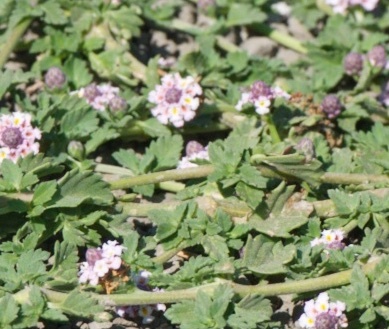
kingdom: Plantae
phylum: Tracheophyta
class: Magnoliopsida
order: Lamiales
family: Verbenaceae
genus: Phyla
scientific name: Phyla nodiflora
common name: Frogfruit
